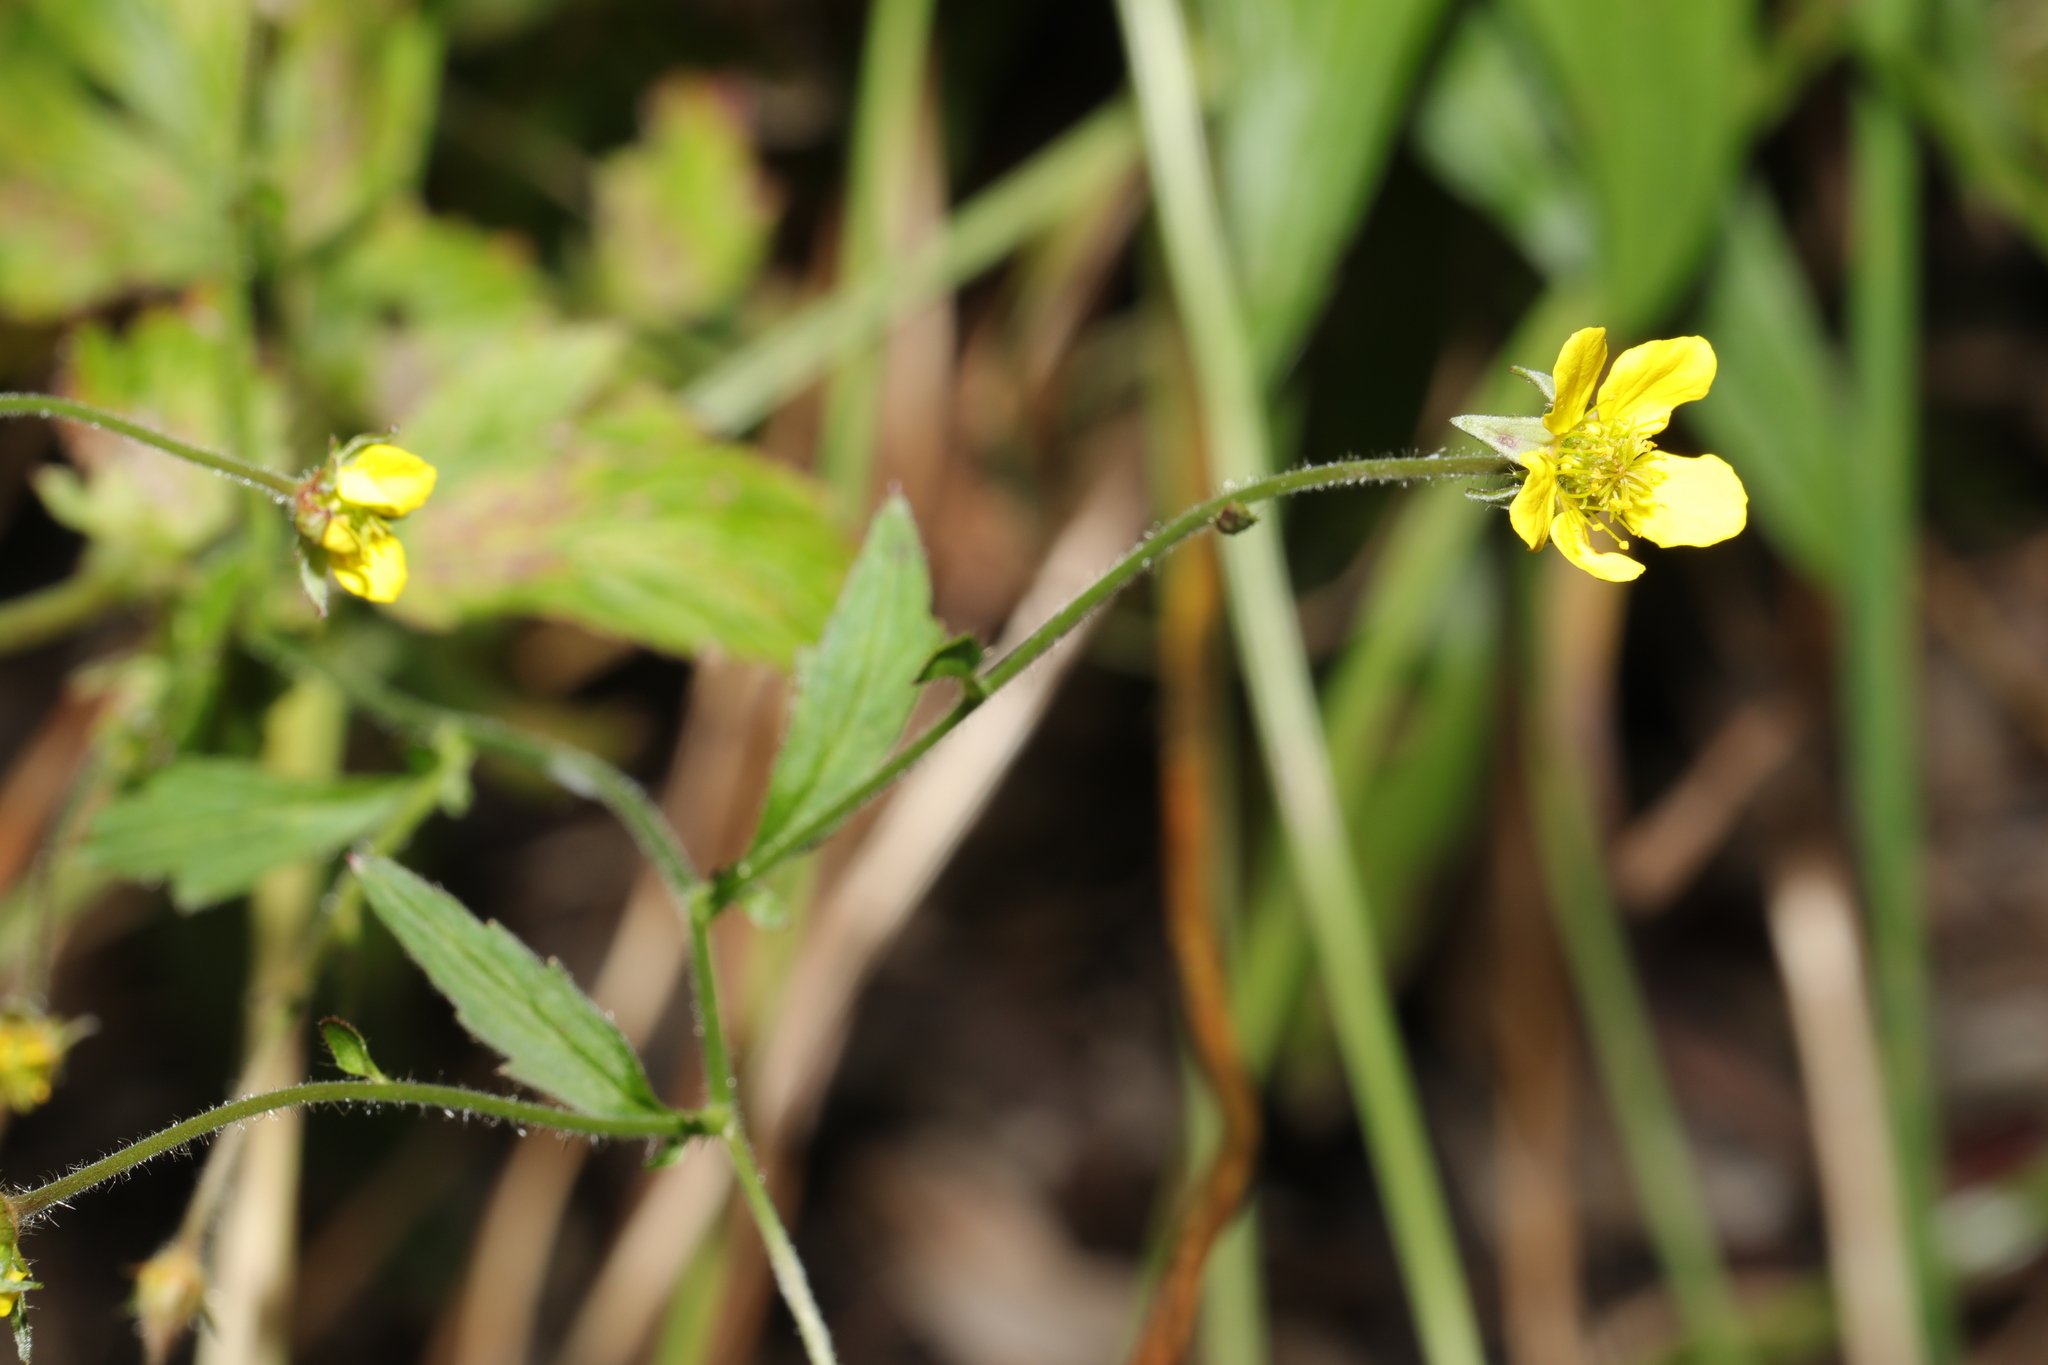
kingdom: Plantae
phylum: Tracheophyta
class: Magnoliopsida
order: Rosales
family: Rosaceae
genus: Geum
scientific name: Geum urbanum
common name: Wood avens
